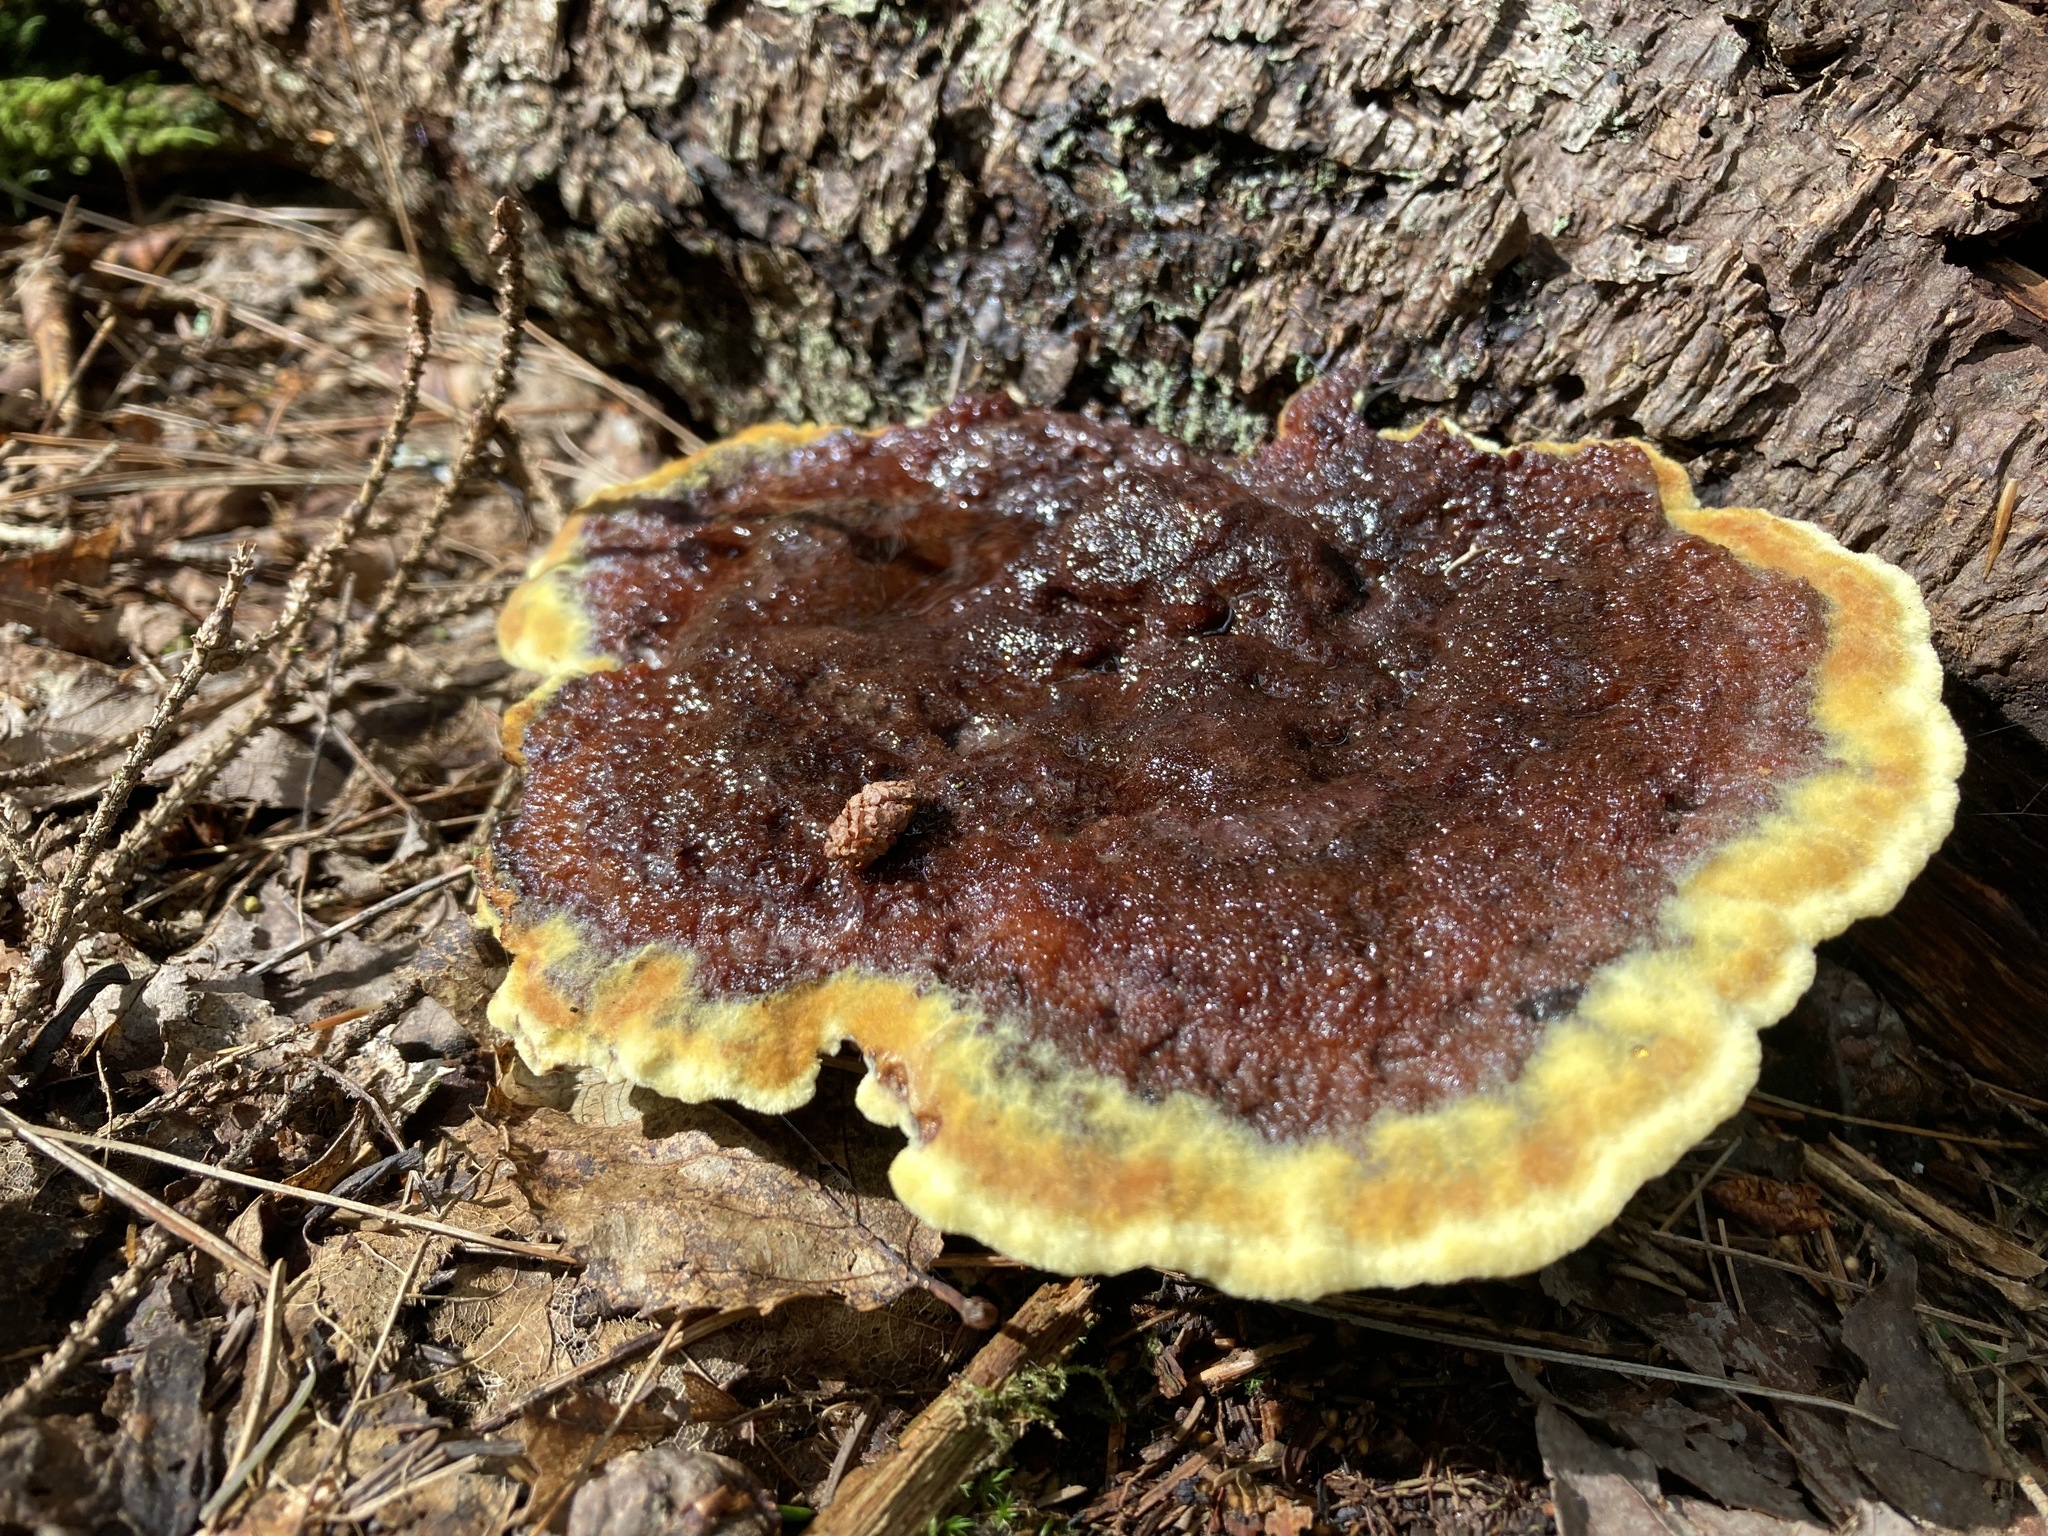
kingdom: Fungi
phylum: Basidiomycota
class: Agaricomycetes
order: Polyporales
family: Laetiporaceae
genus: Phaeolus
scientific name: Phaeolus schweinitzii
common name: Dyer's mazegill
